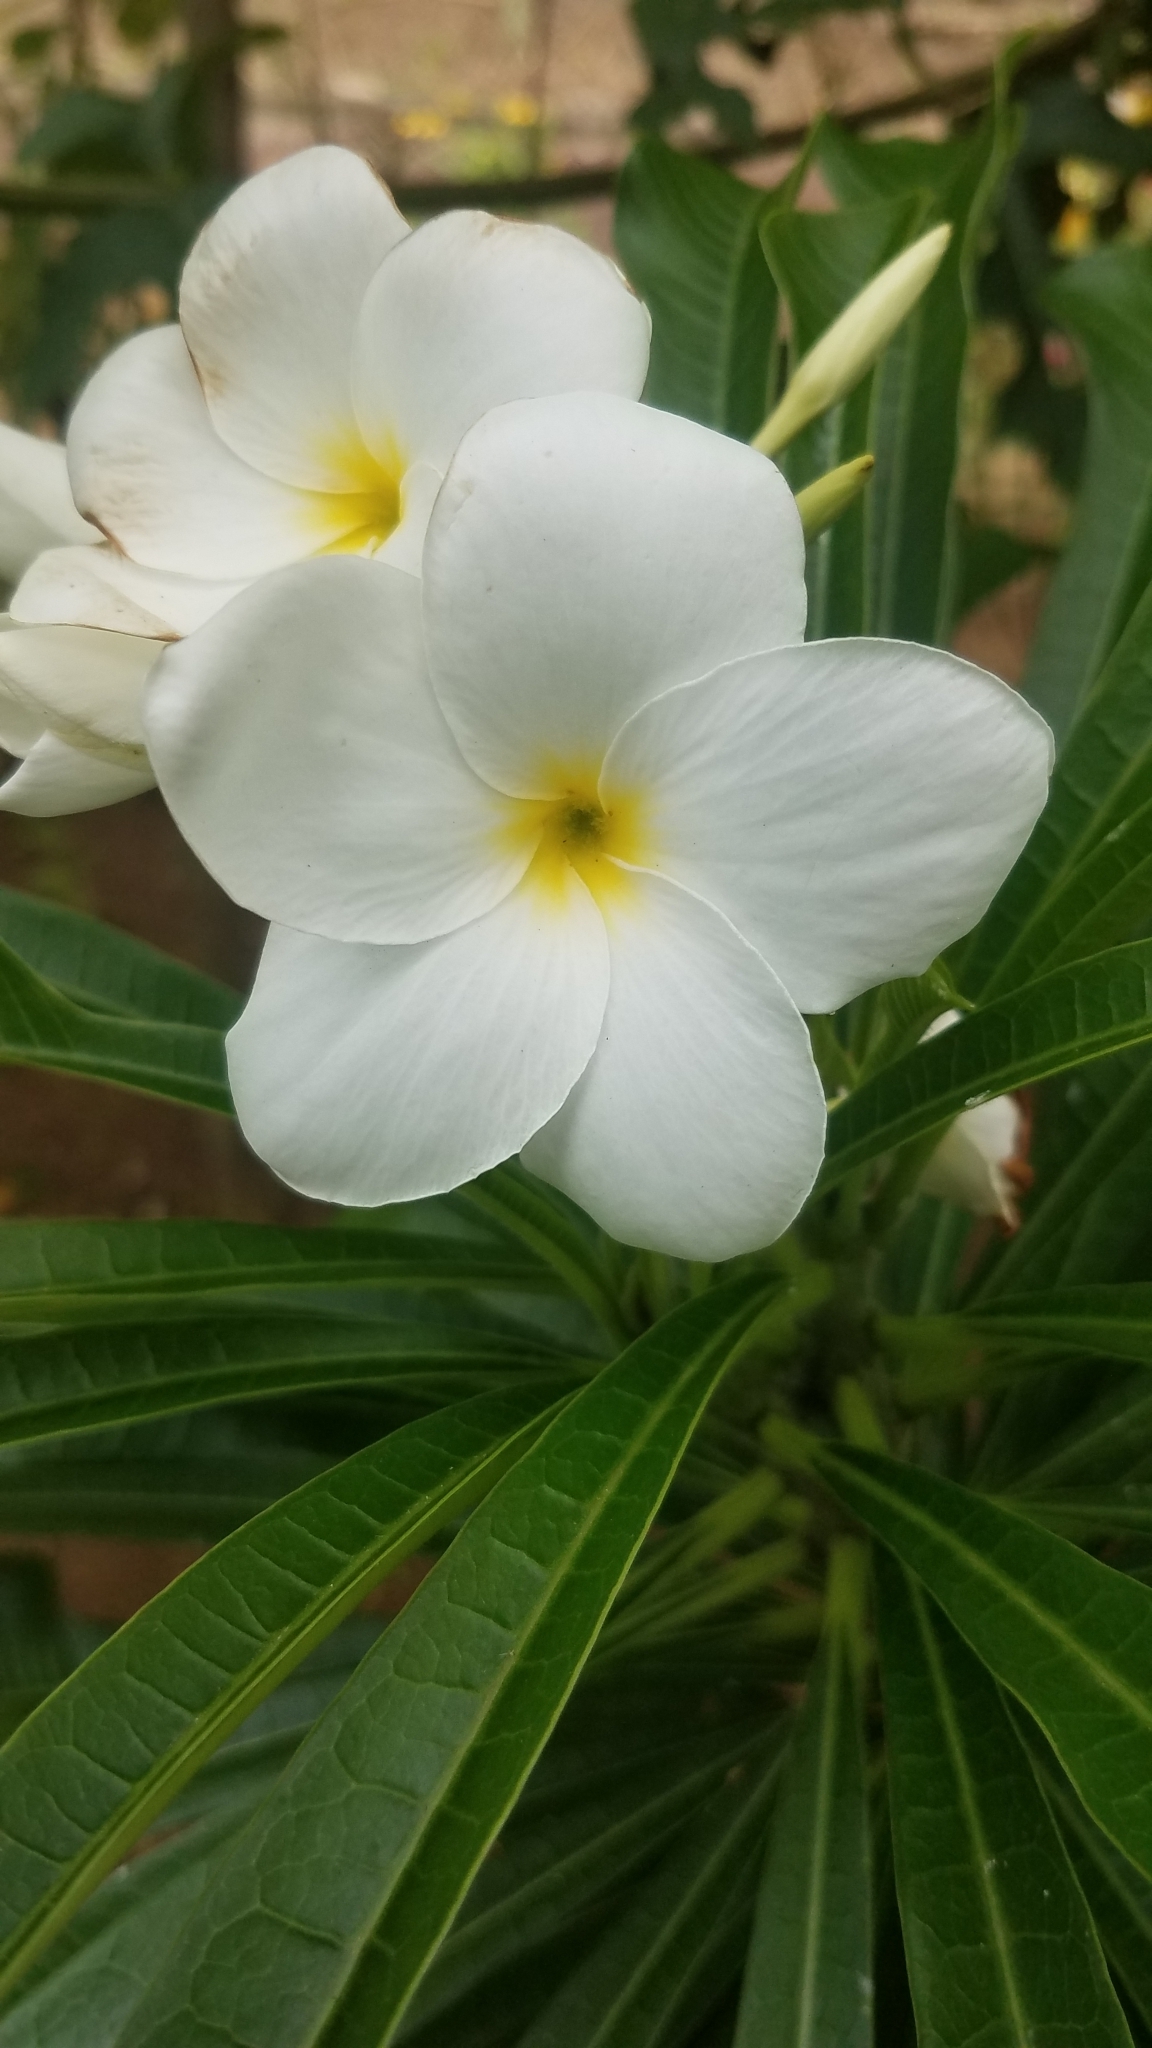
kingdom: Plantae
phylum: Tracheophyta
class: Magnoliopsida
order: Gentianales
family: Apocynaceae
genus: Plumeria
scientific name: Plumeria pudica
